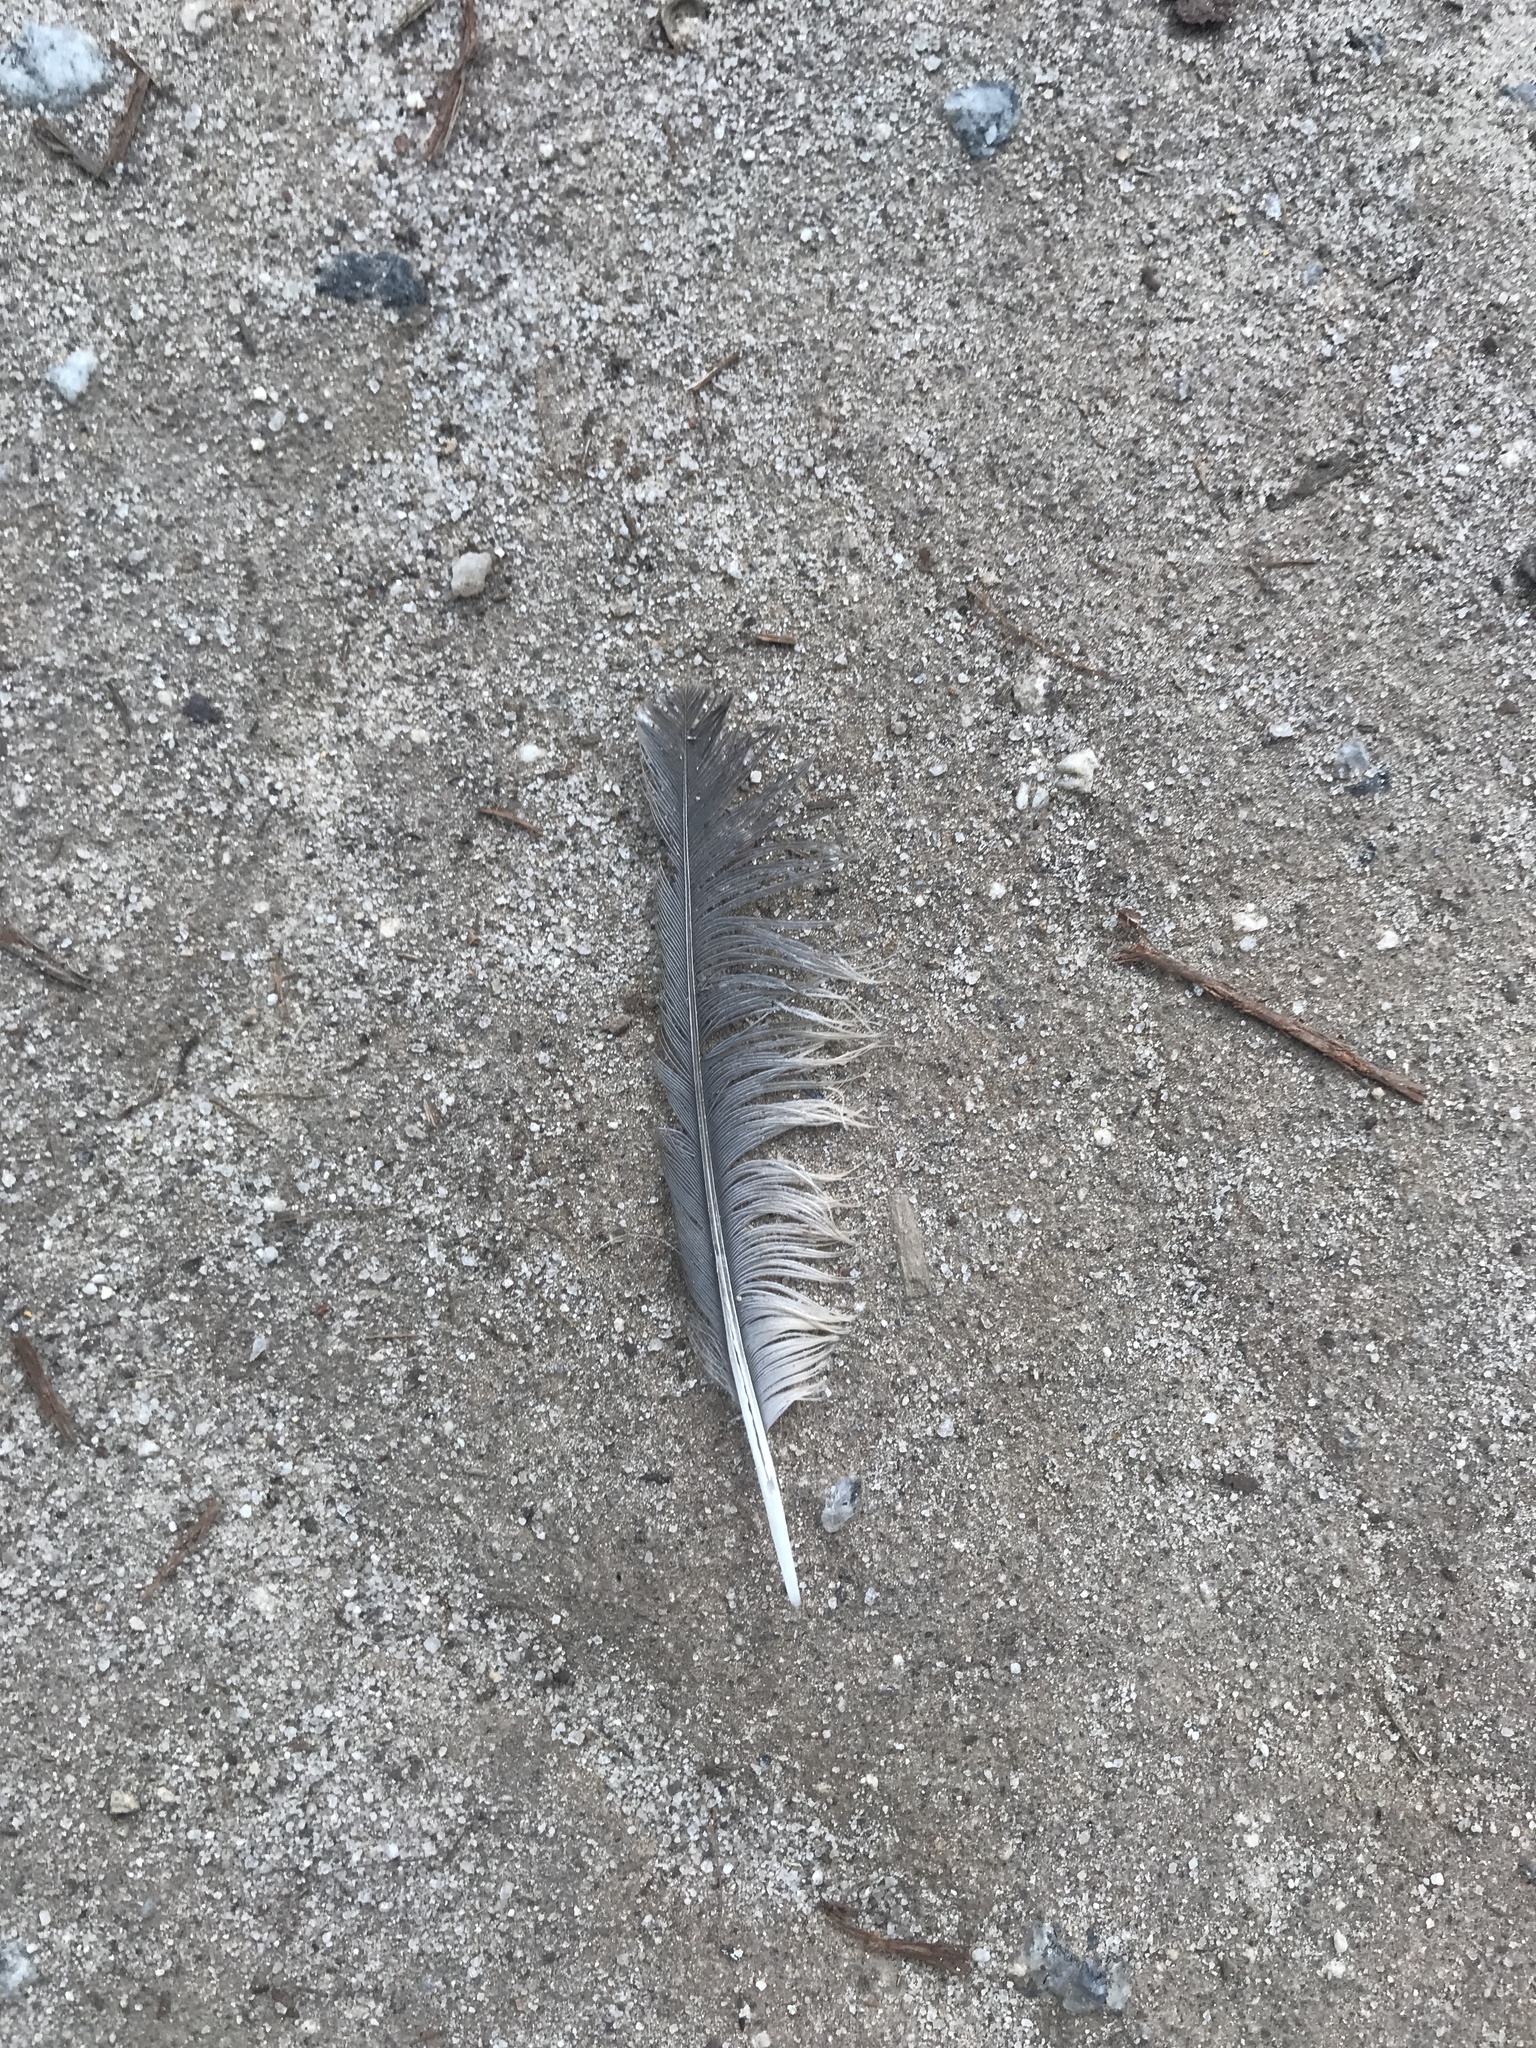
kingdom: Animalia
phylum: Chordata
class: Aves
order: Passeriformes
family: Turdidae
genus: Turdus
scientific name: Turdus migratorius
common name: American robin
